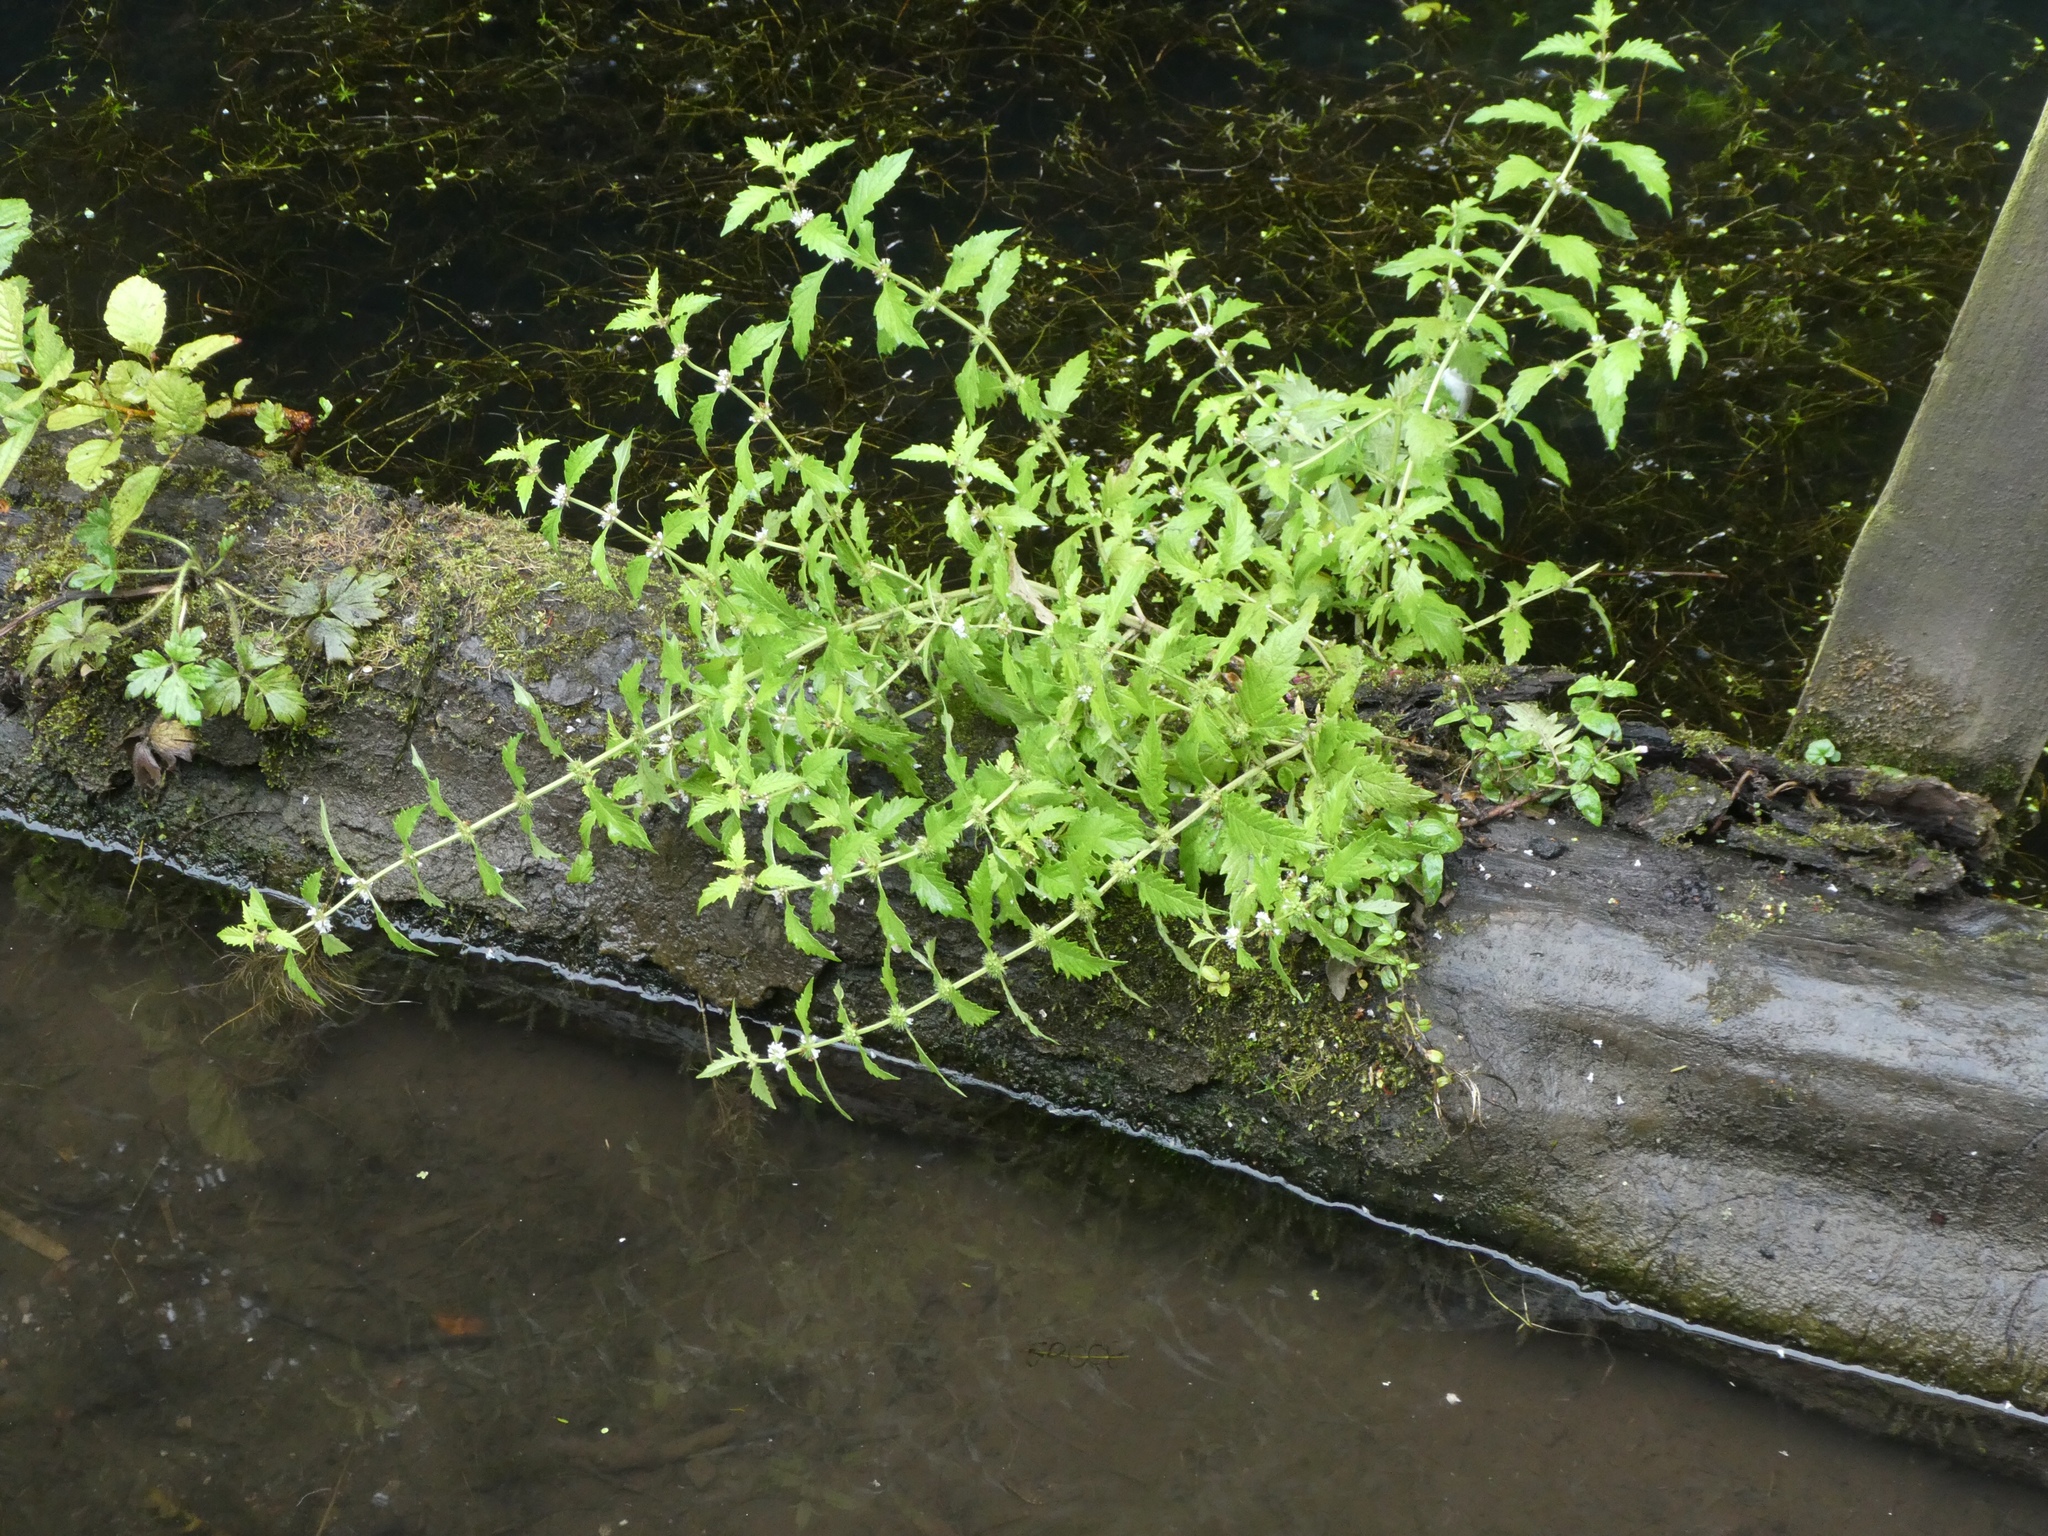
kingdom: Plantae
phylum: Tracheophyta
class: Magnoliopsida
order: Lamiales
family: Lamiaceae
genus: Lycopus
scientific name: Lycopus europaeus
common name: European bugleweed
